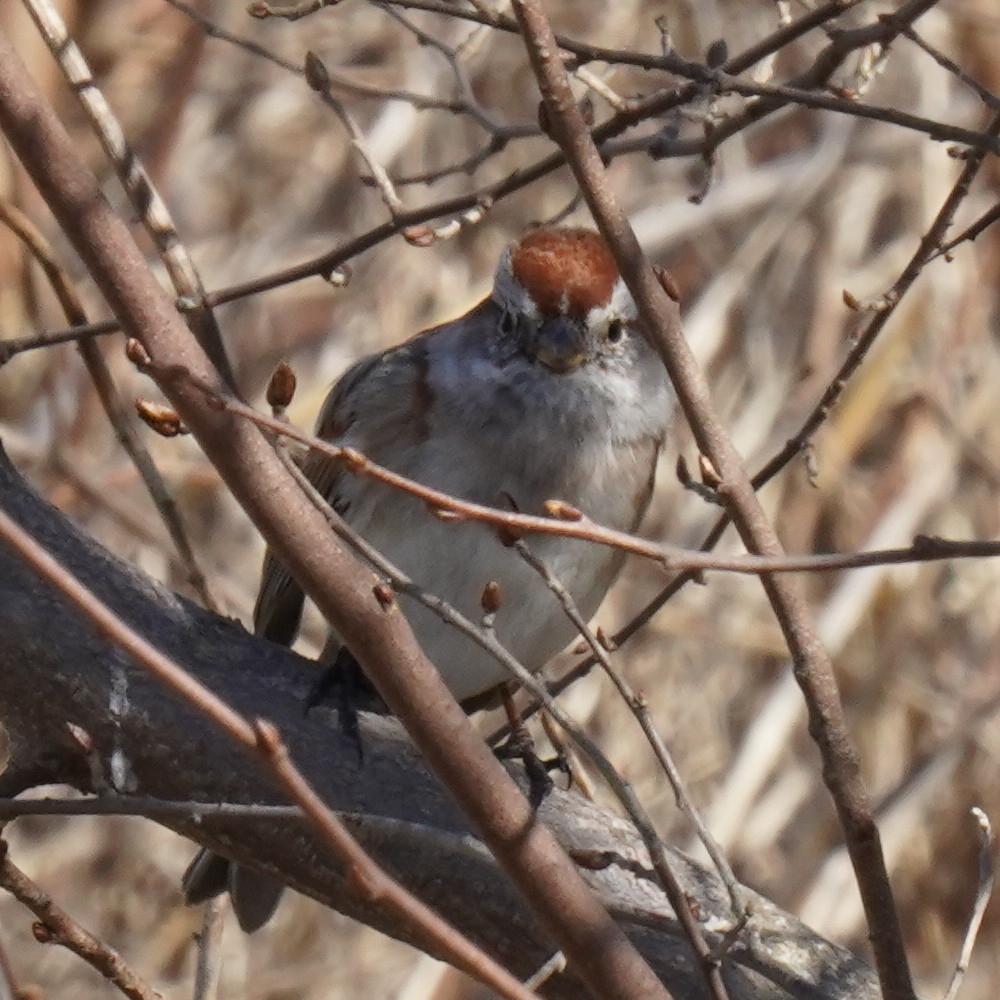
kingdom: Animalia
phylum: Chordata
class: Aves
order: Passeriformes
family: Passerellidae
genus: Spizelloides
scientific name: Spizelloides arborea
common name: American tree sparrow
